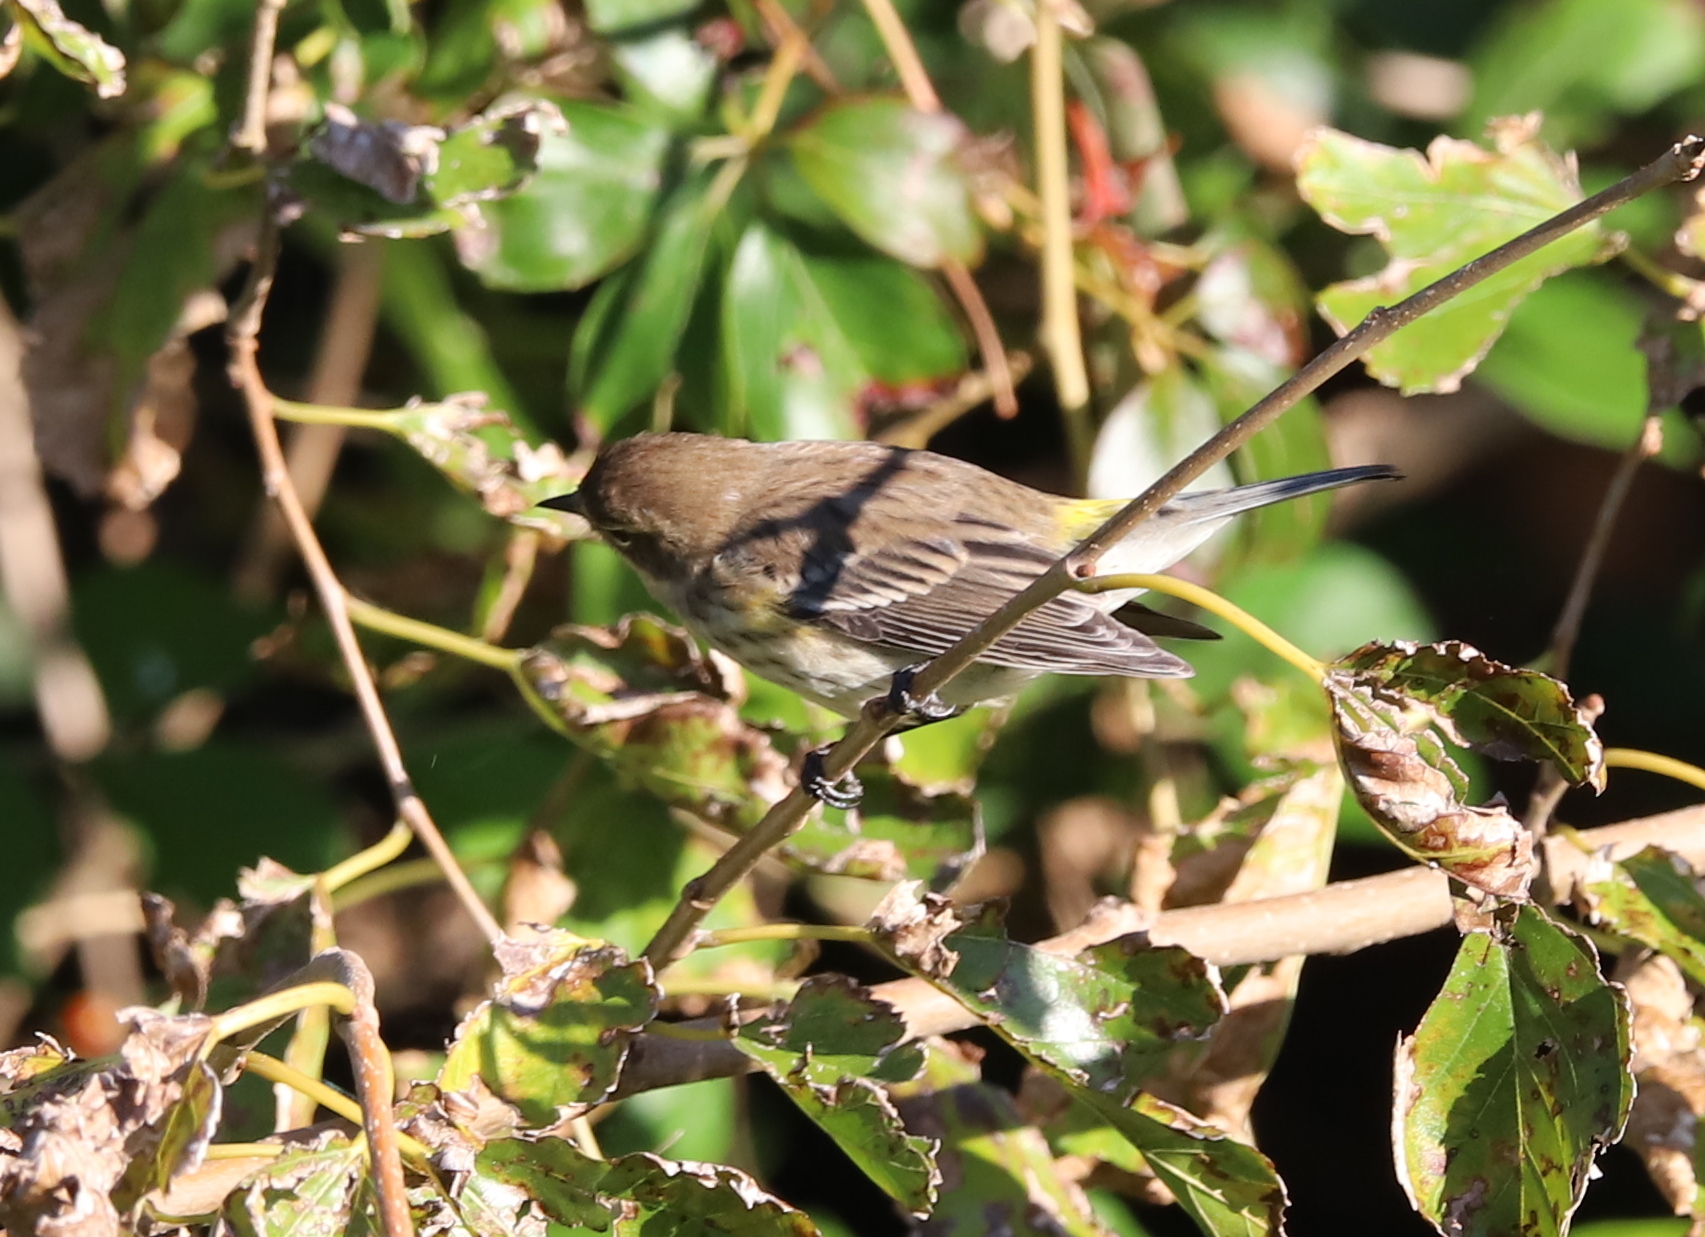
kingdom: Animalia
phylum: Chordata
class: Aves
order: Passeriformes
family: Parulidae
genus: Setophaga
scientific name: Setophaga coronata
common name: Myrtle warbler
